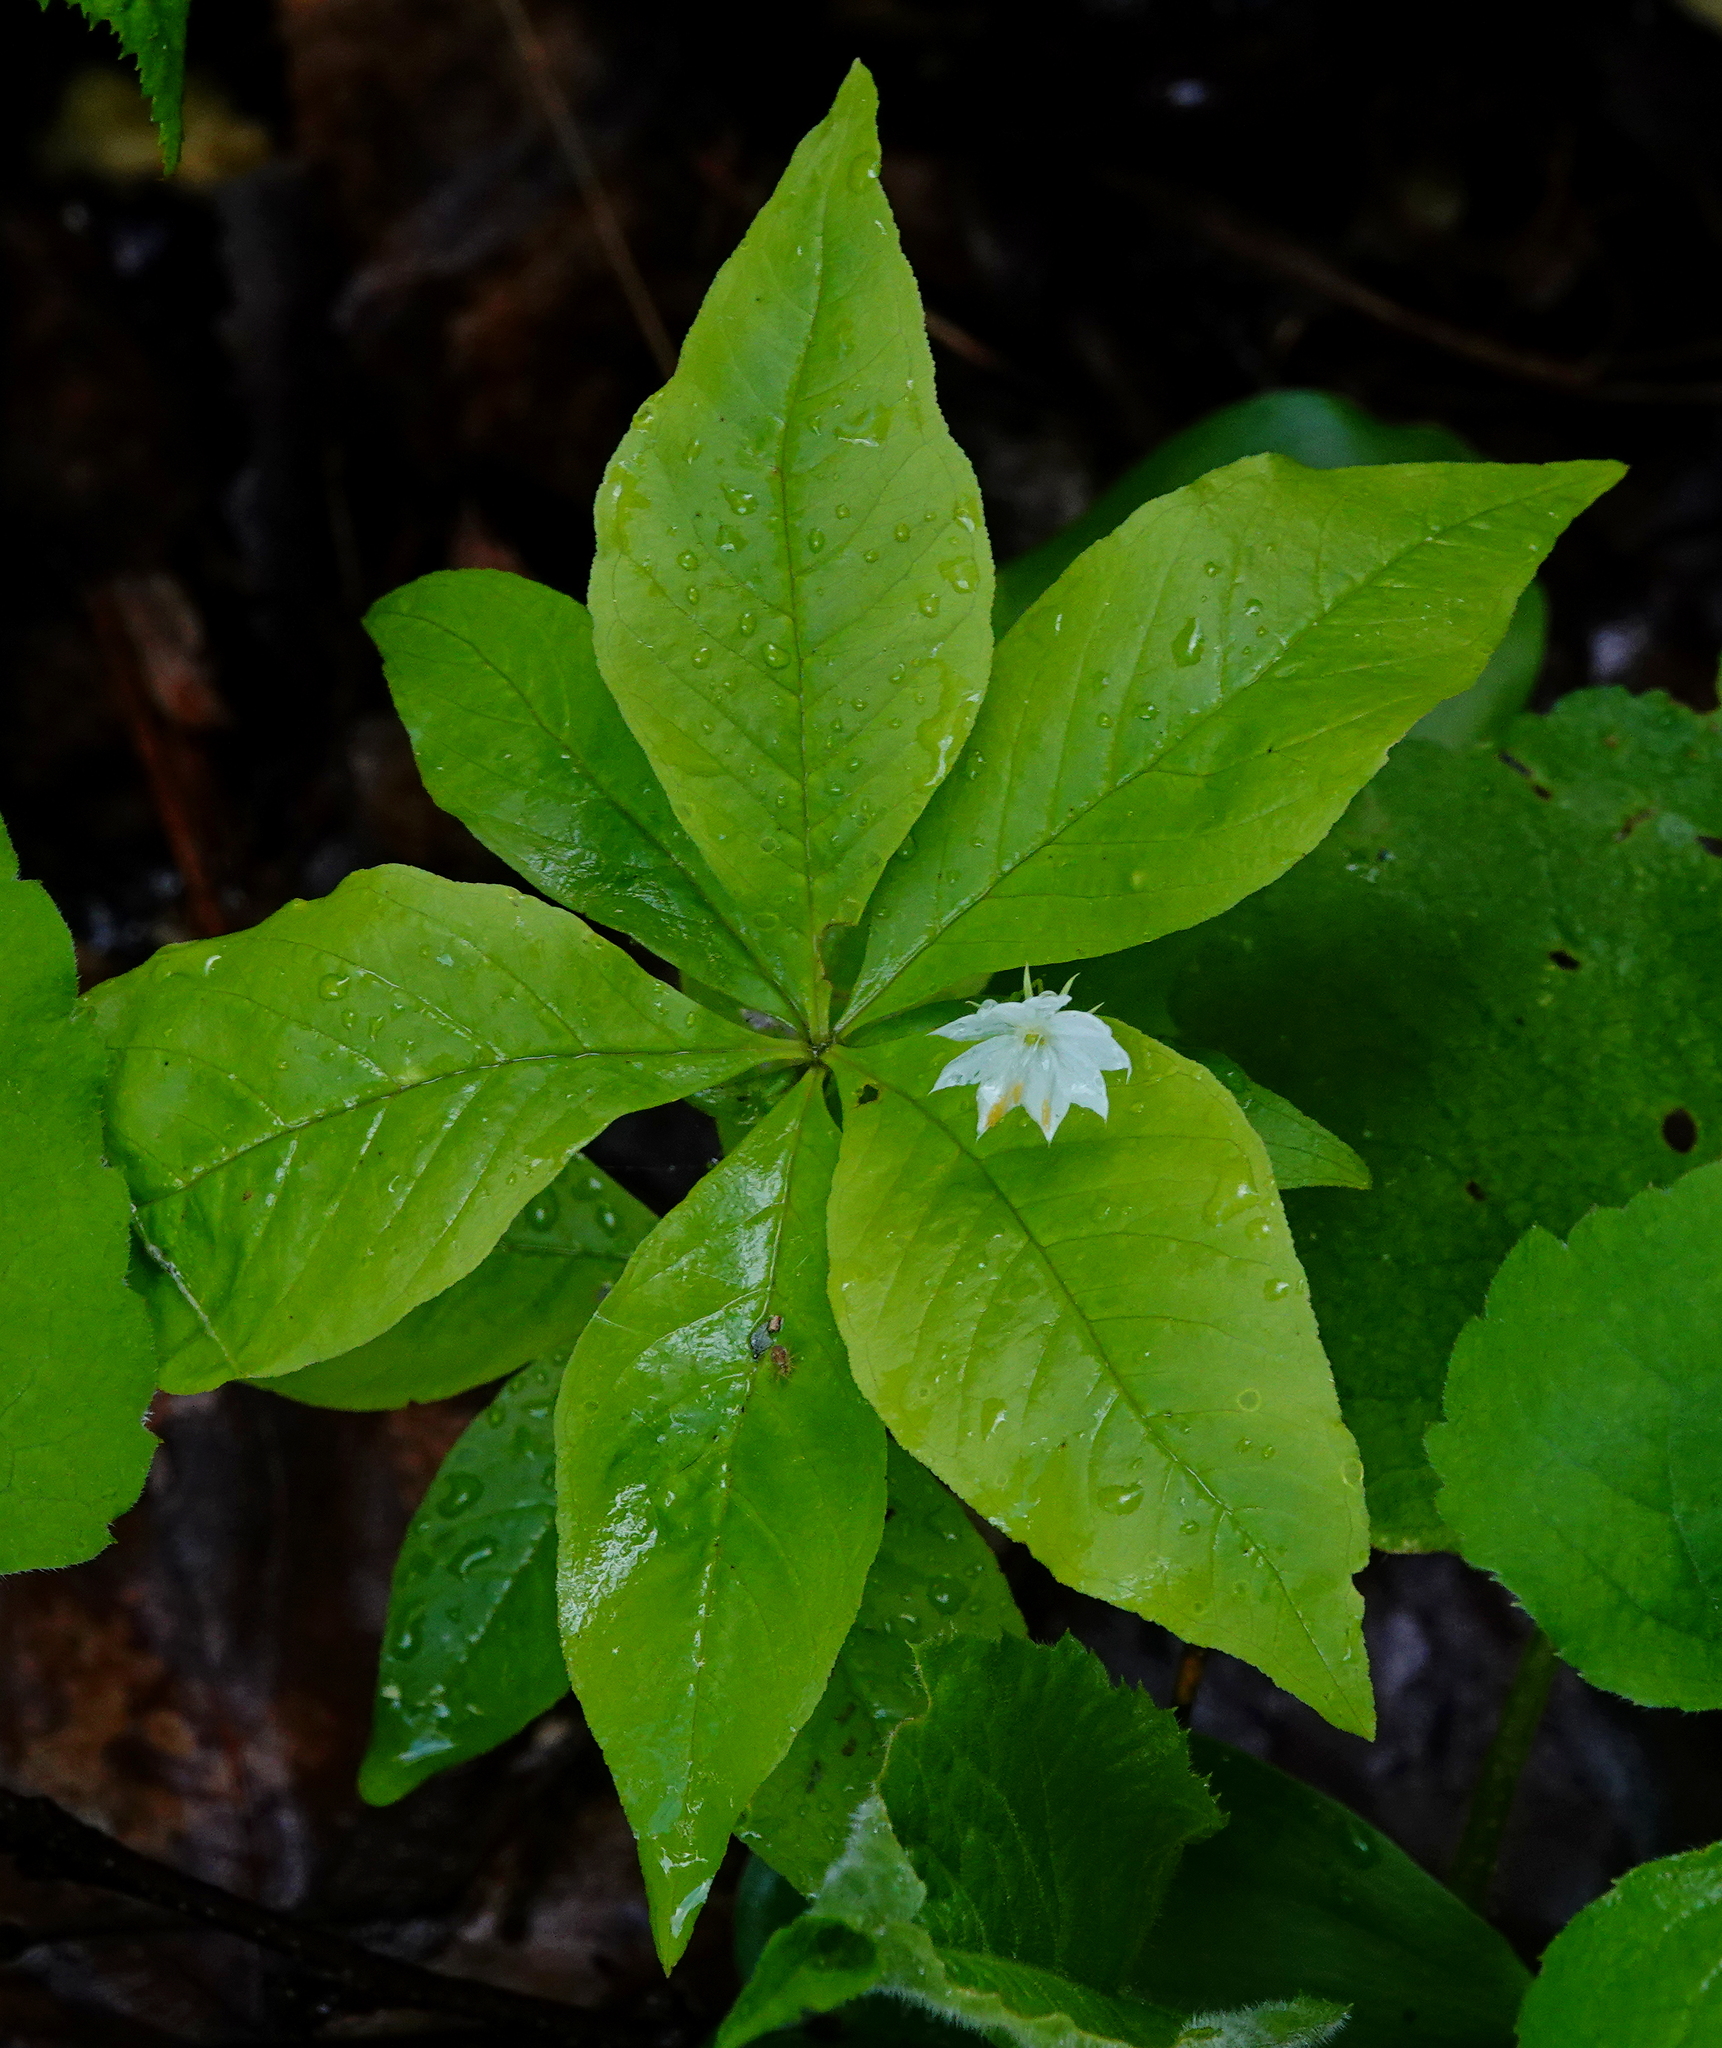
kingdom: Plantae
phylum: Tracheophyta
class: Magnoliopsida
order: Ericales
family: Primulaceae
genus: Lysimachia
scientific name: Lysimachia borealis
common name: American starflower
